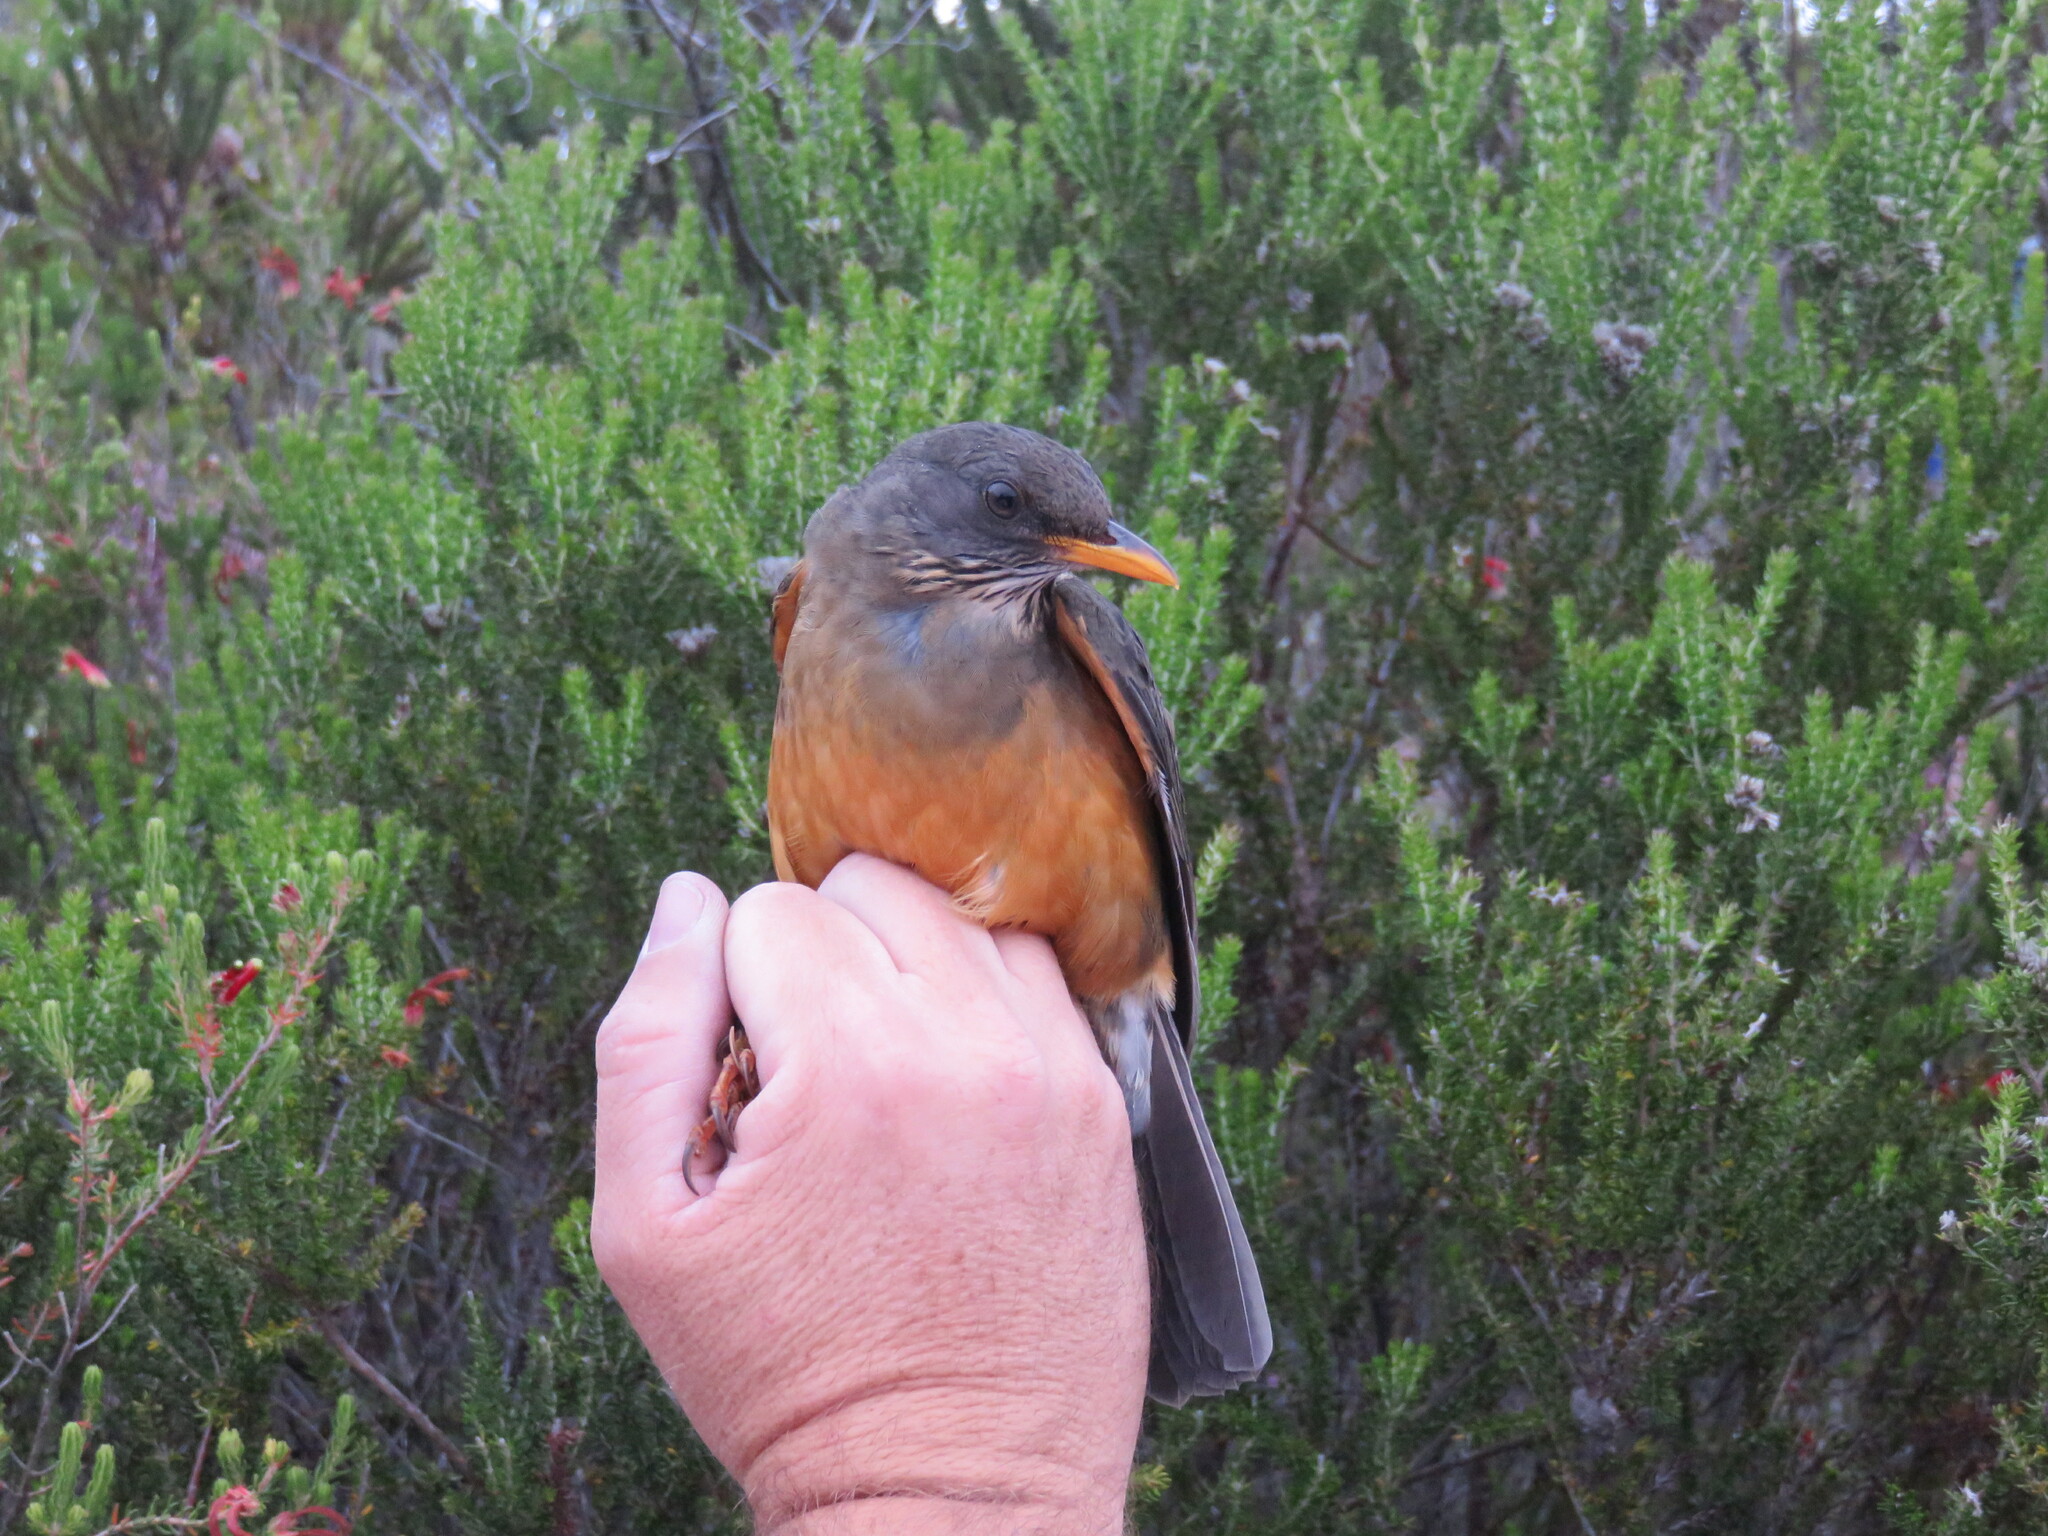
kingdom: Animalia
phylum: Chordata
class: Aves
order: Passeriformes
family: Turdidae
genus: Turdus
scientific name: Turdus olivaceus
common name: Olive thrush
